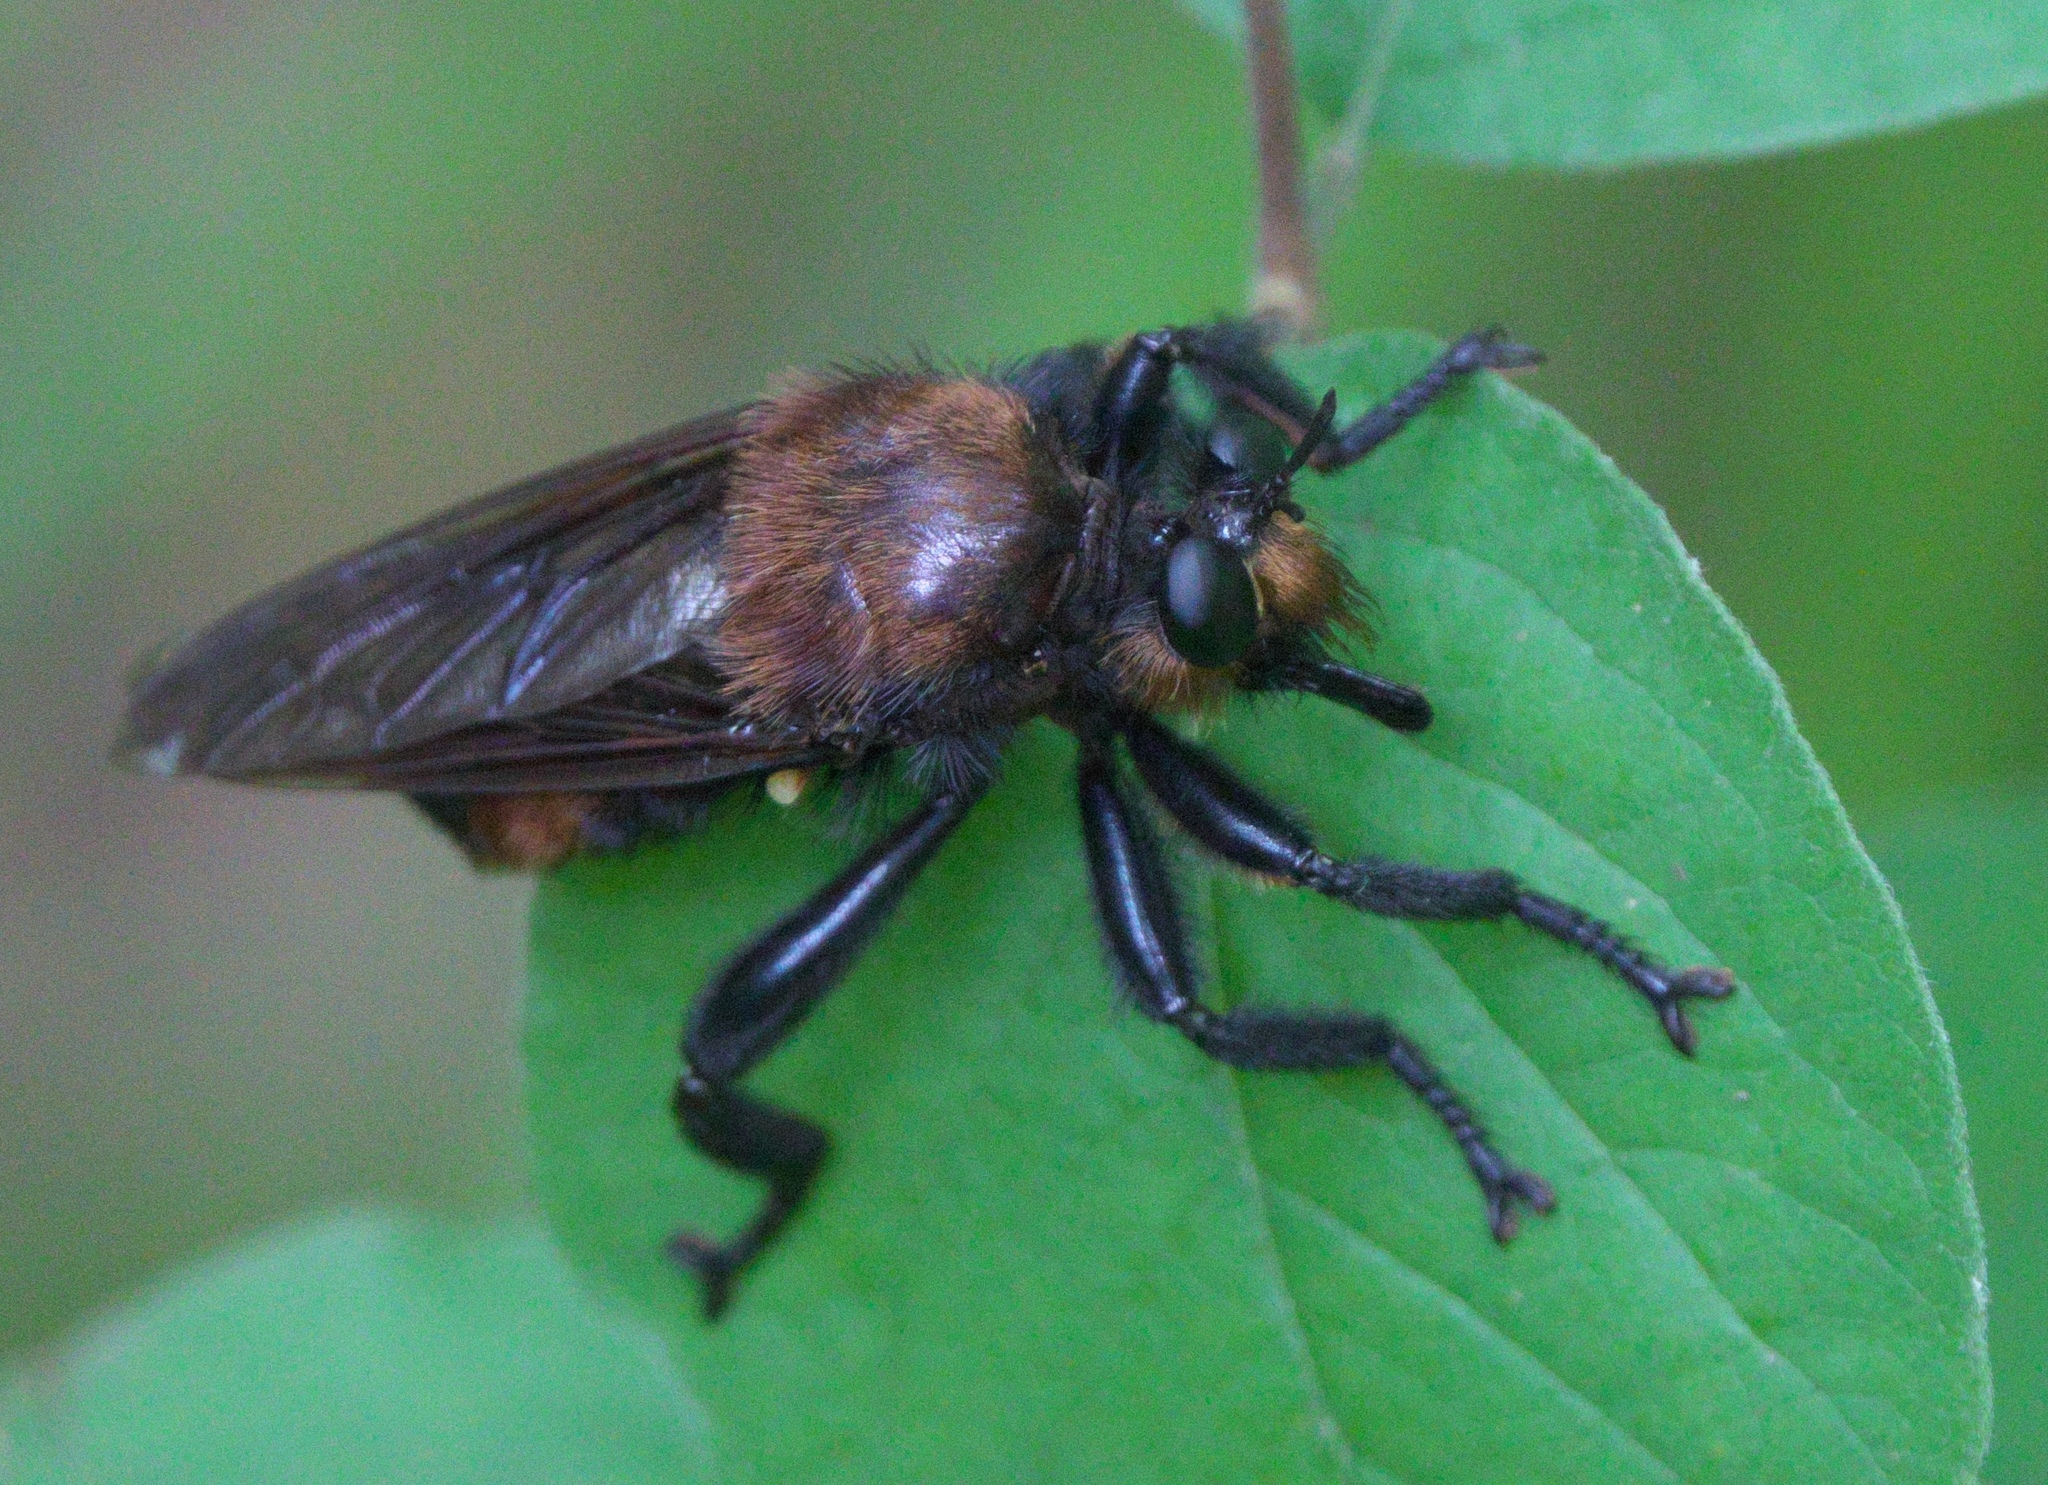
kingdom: Animalia
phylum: Arthropoda
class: Insecta
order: Diptera
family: Asilidae
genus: Laphria
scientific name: Laphria lata
